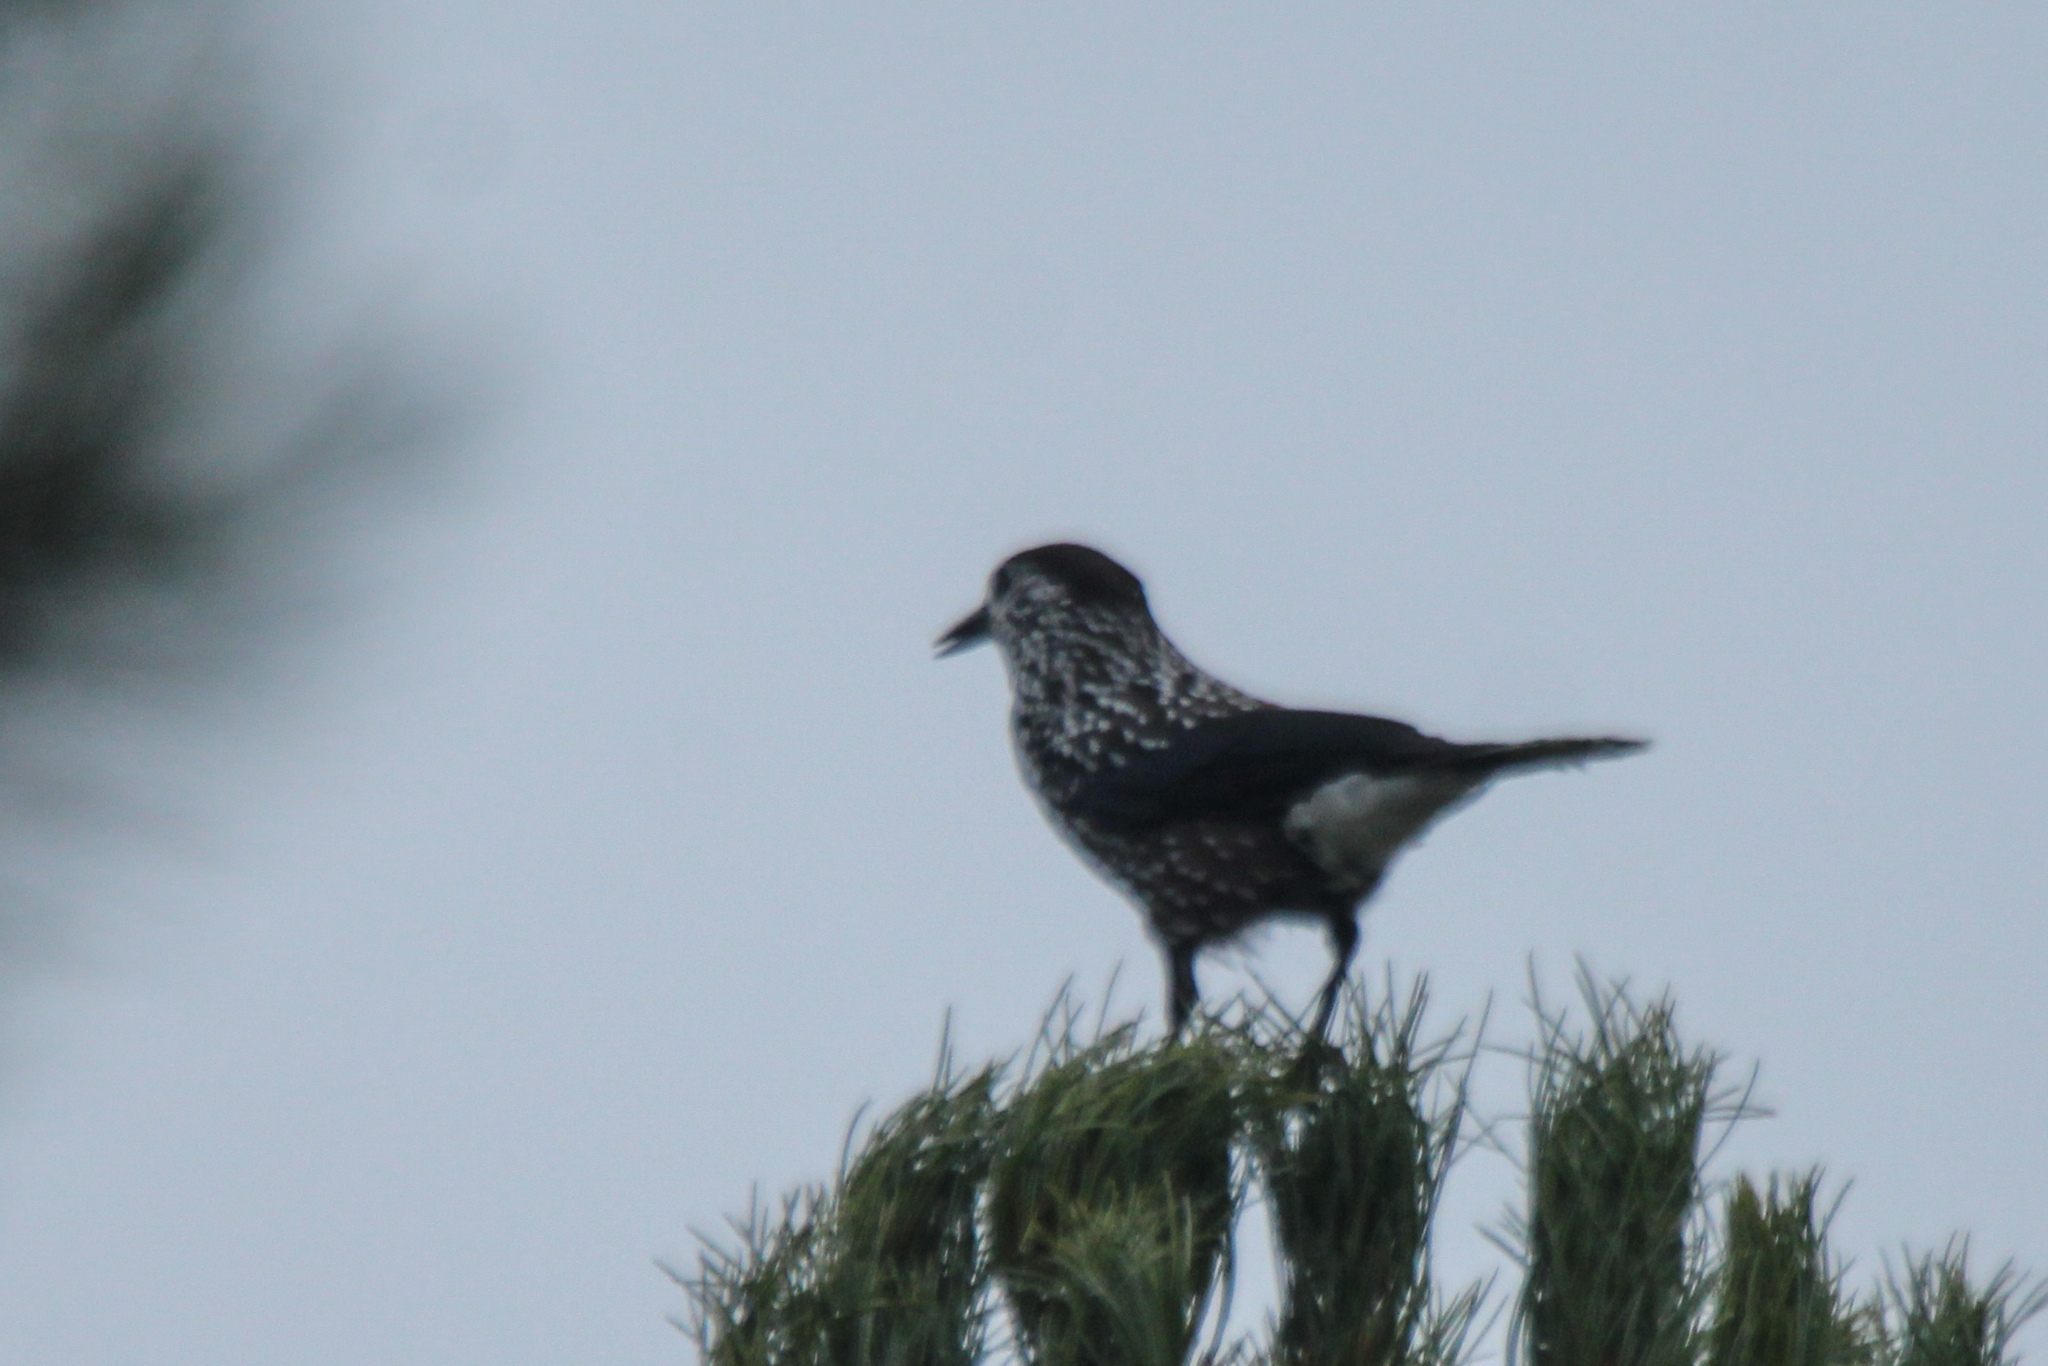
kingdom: Animalia
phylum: Chordata
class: Aves
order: Passeriformes
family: Corvidae
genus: Nucifraga
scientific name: Nucifraga caryocatactes
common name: Spotted nutcracker
